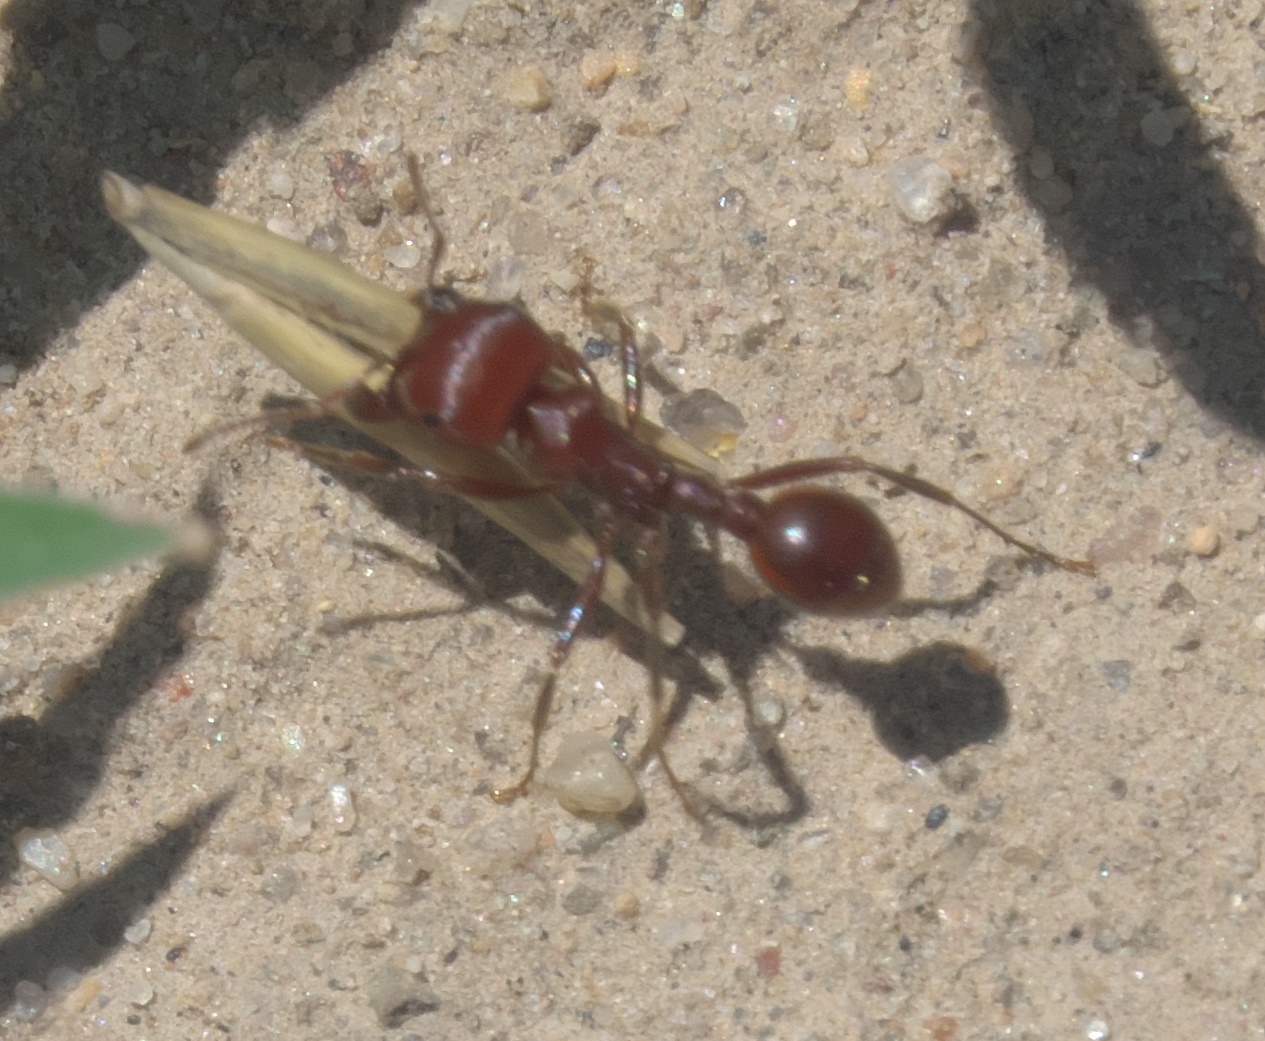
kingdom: Animalia
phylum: Arthropoda
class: Insecta
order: Hymenoptera
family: Formicidae
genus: Pogonomyrmex
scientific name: Pogonomyrmex barbatus
